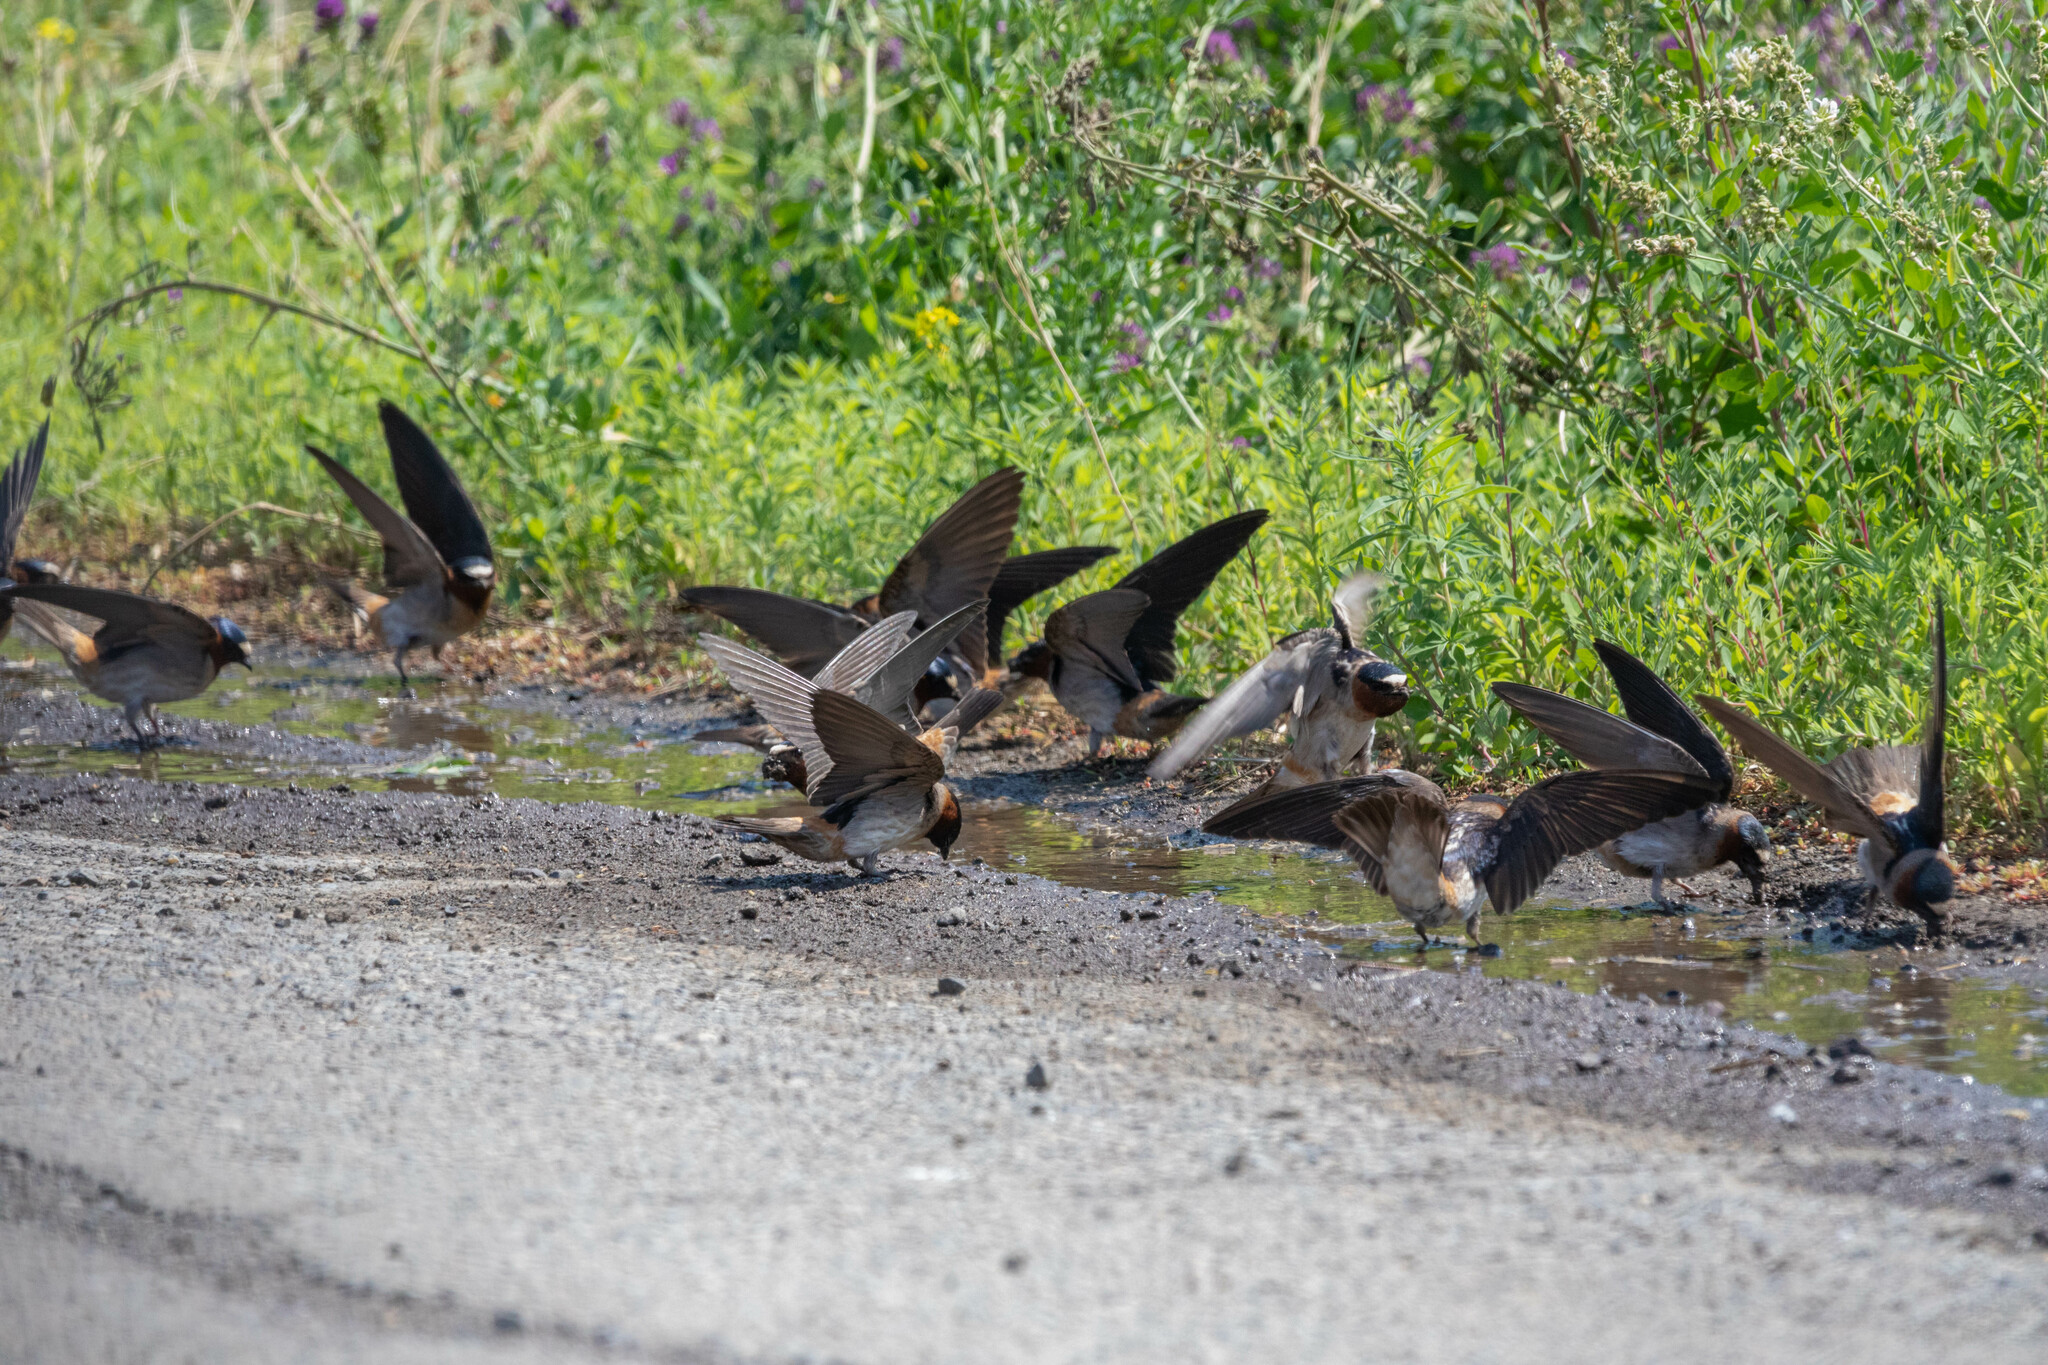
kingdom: Animalia
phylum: Chordata
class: Aves
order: Passeriformes
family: Hirundinidae
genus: Petrochelidon
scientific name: Petrochelidon pyrrhonota
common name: American cliff swallow
